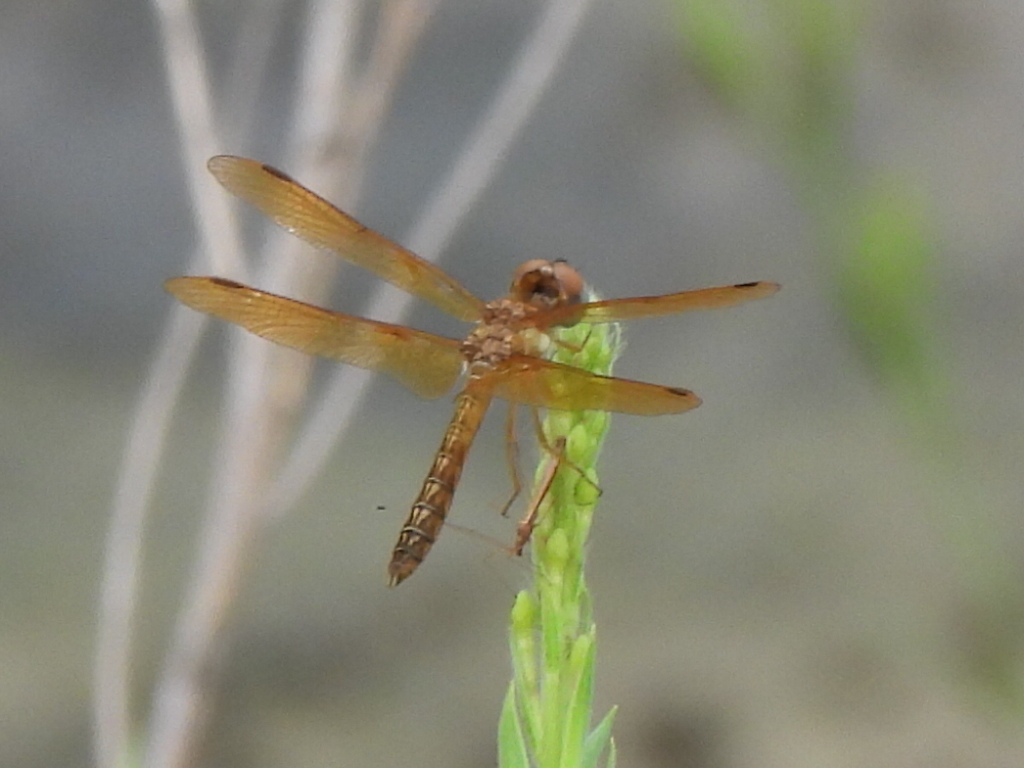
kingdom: Animalia
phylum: Arthropoda
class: Insecta
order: Odonata
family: Libellulidae
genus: Perithemis
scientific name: Perithemis tenera
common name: Eastern amberwing
